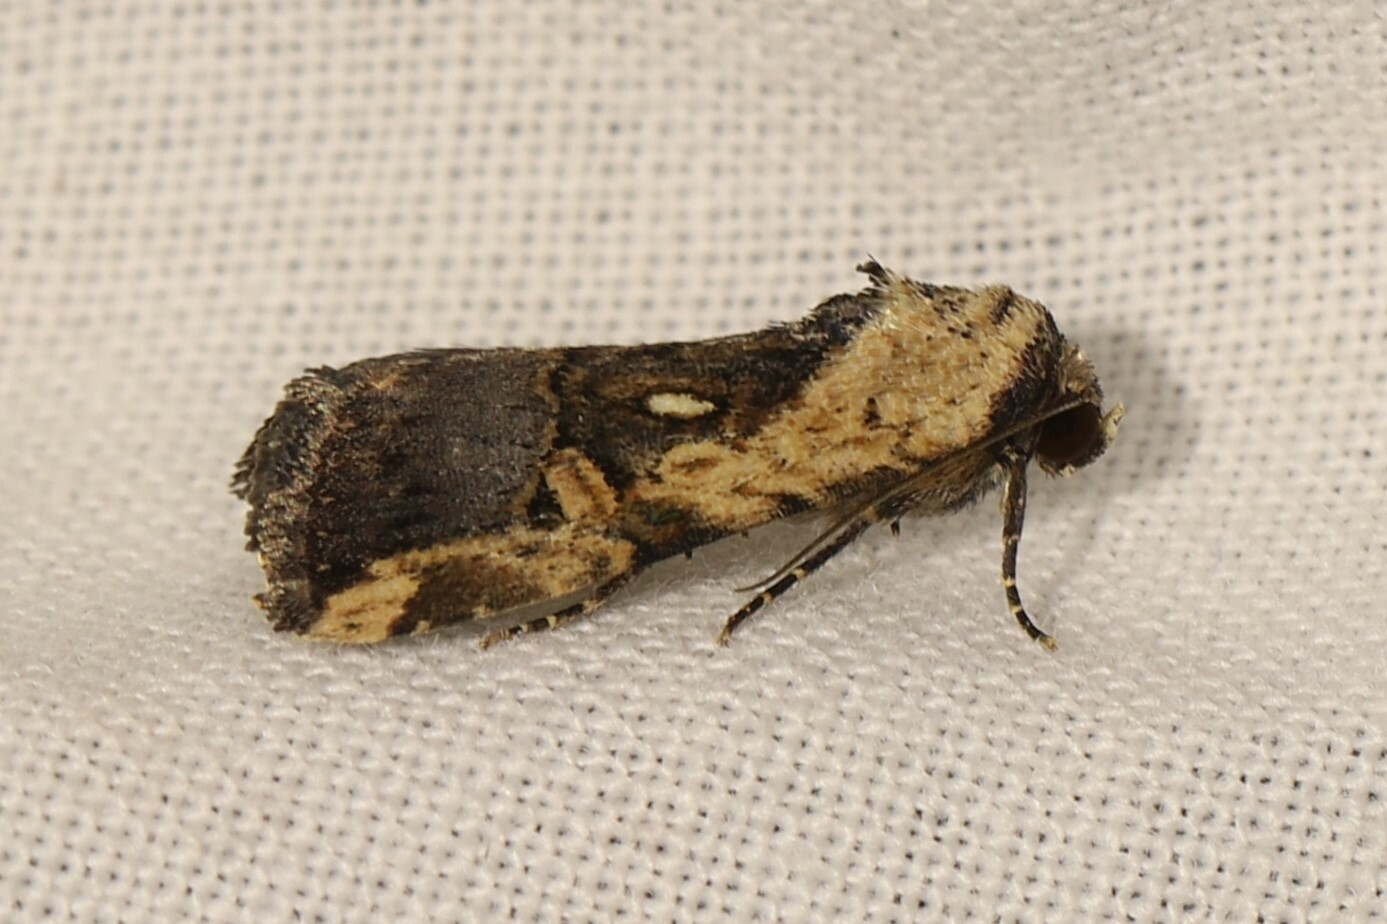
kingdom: Animalia
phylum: Arthropoda
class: Insecta
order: Lepidoptera
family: Noctuidae
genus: Elaphria
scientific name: Elaphria agrotina
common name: Agrotina midget
